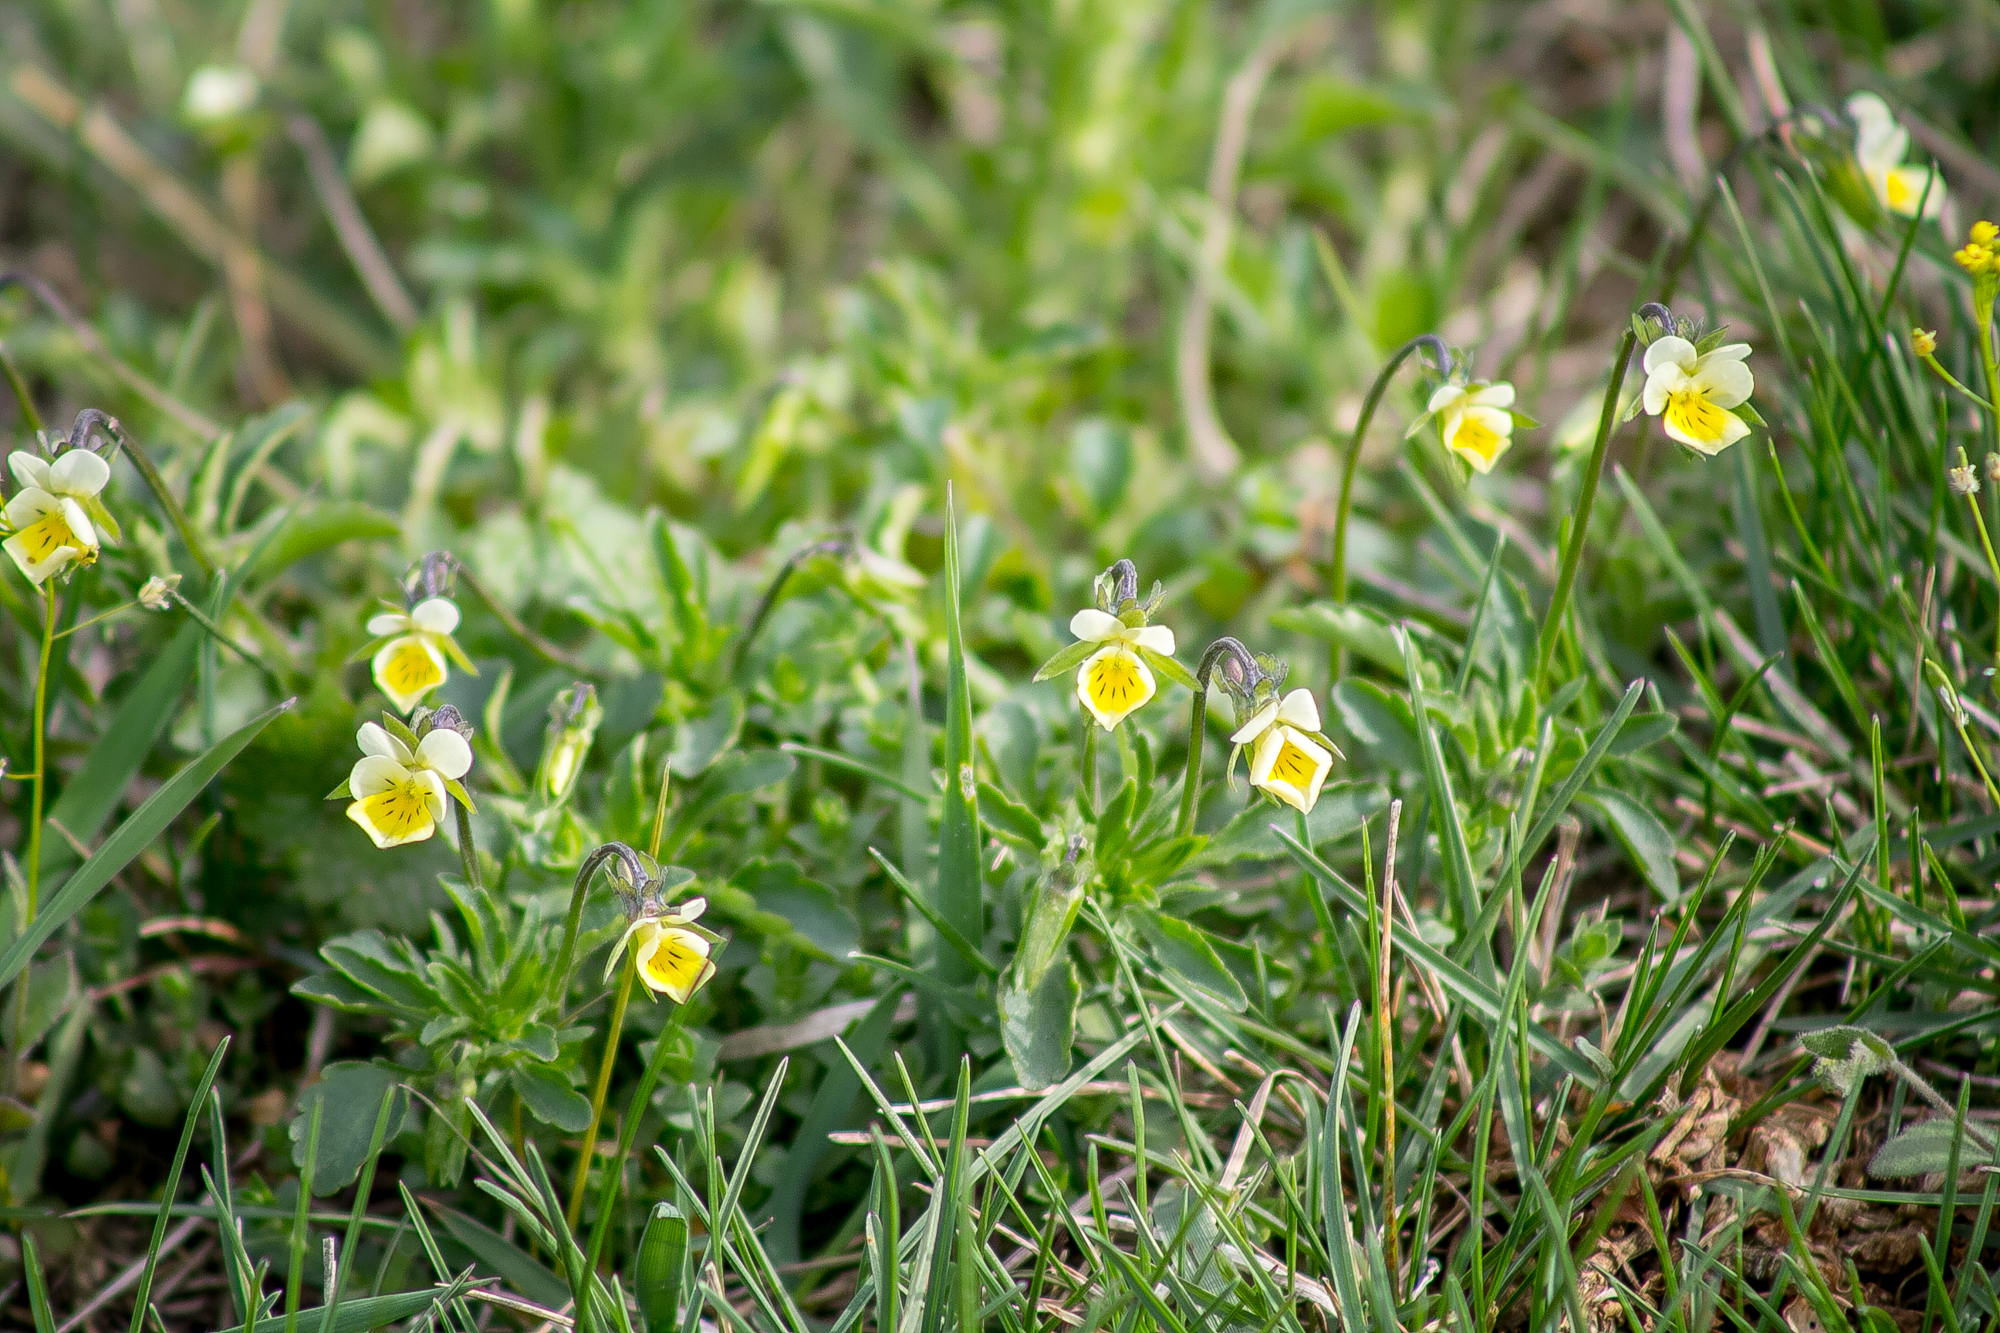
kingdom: Plantae
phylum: Tracheophyta
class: Magnoliopsida
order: Malpighiales
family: Violaceae
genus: Viola
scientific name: Viola arvensis
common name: Field pansy
